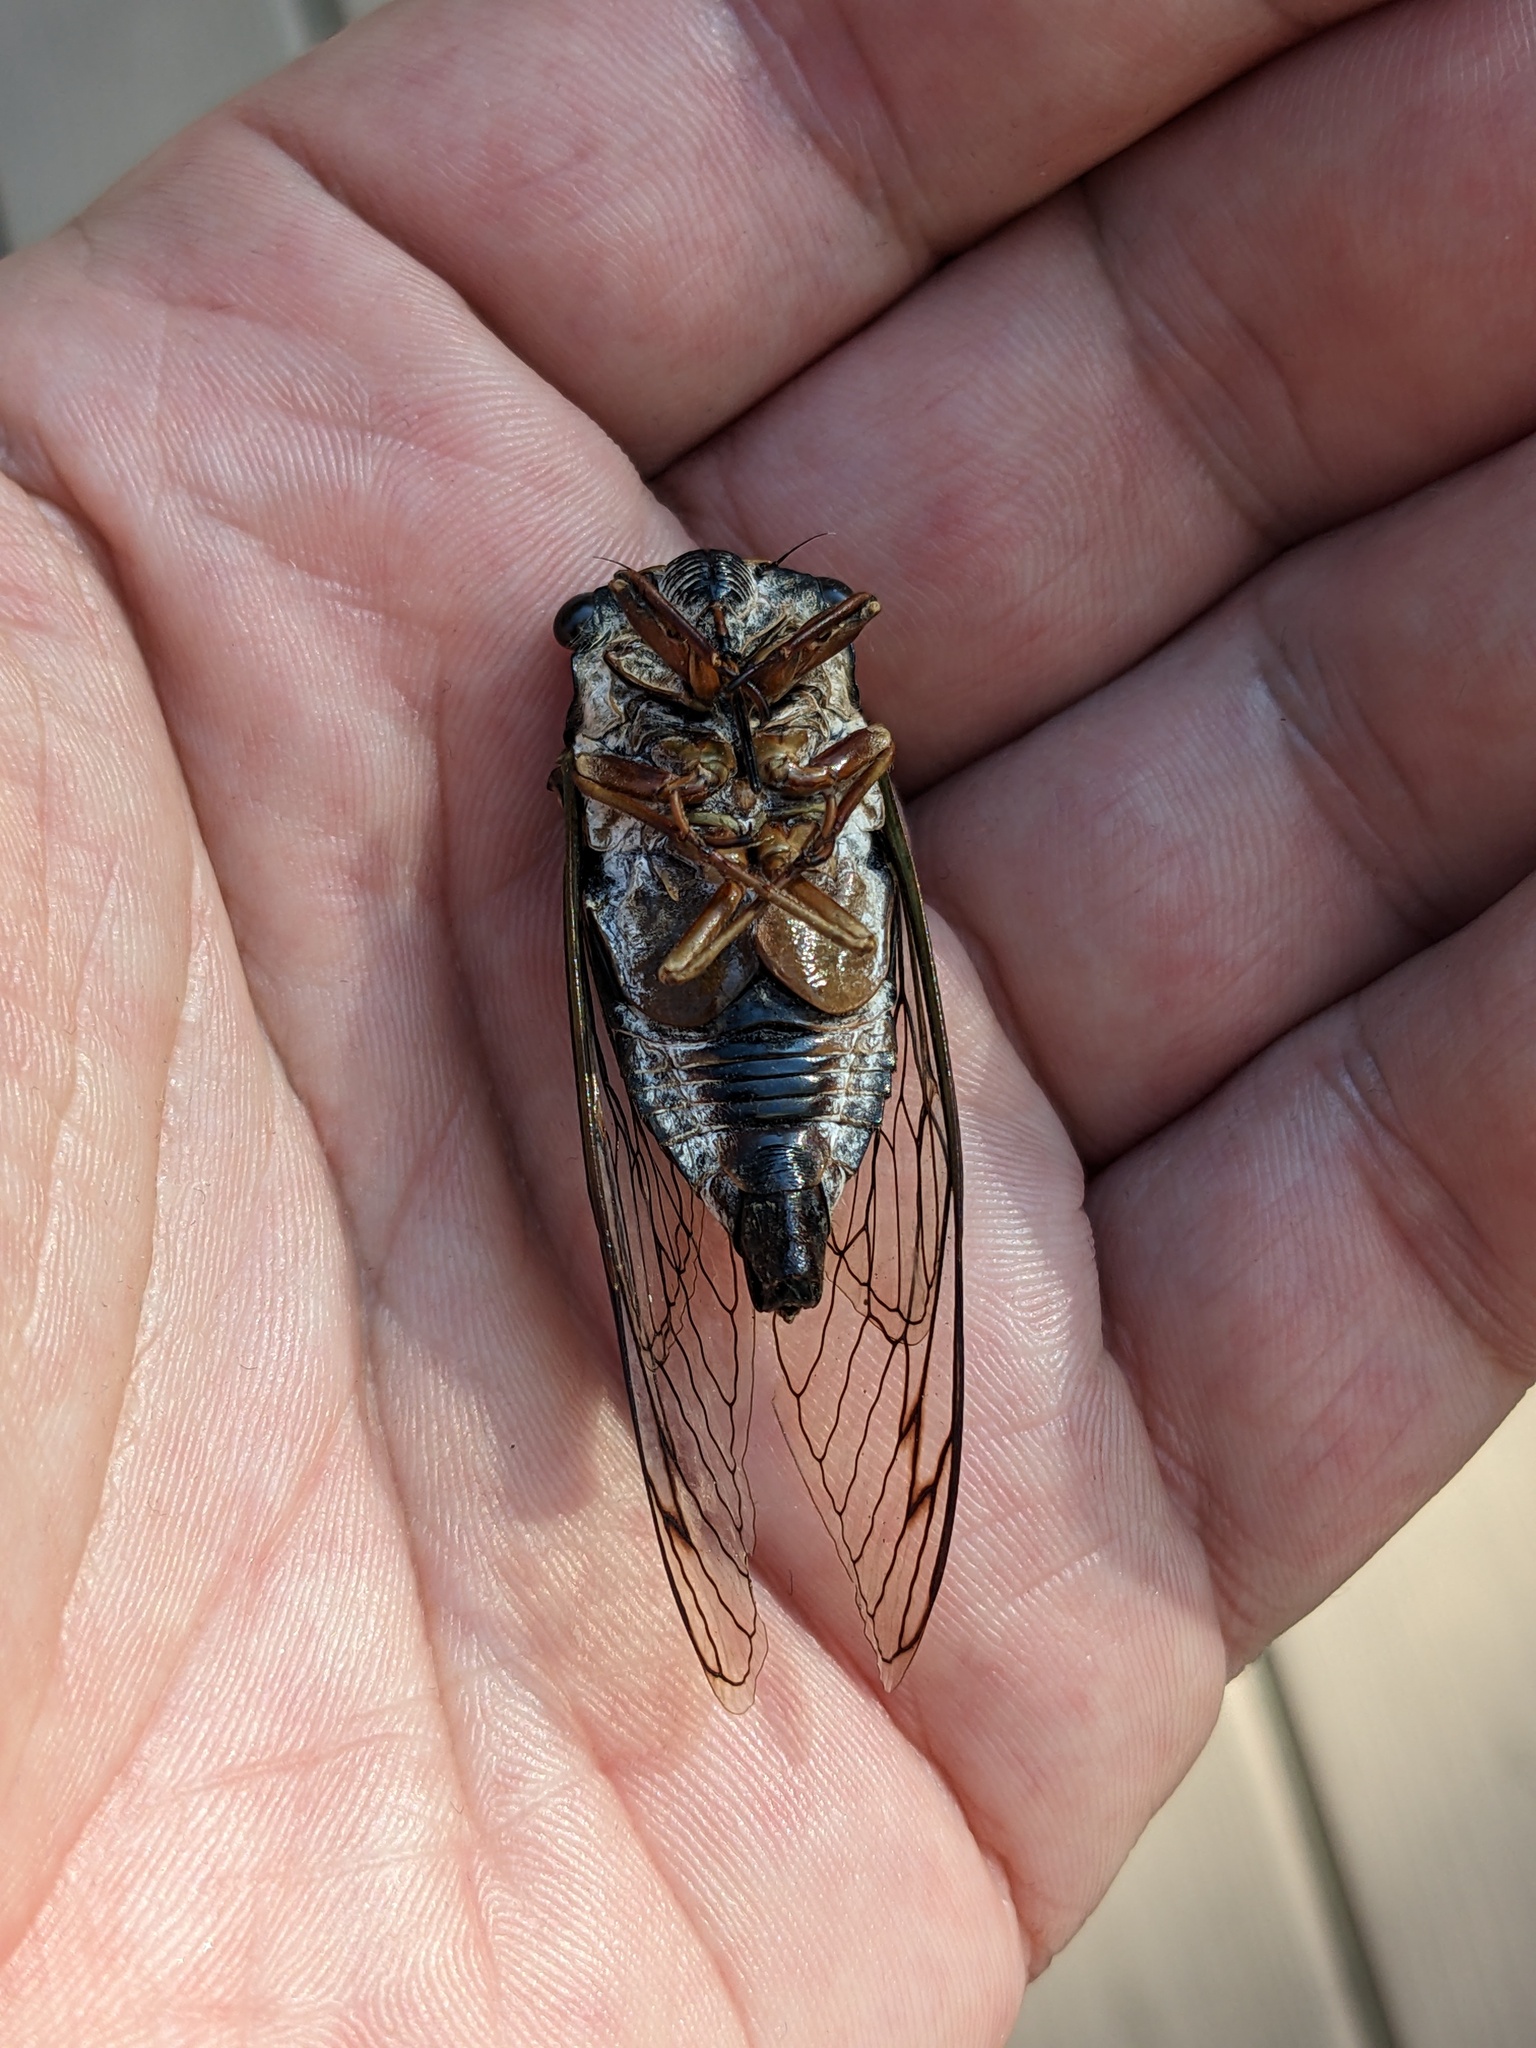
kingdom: Animalia
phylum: Arthropoda
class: Insecta
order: Hemiptera
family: Cicadidae
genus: Neotibicen
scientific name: Neotibicen lyricen
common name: Lyric cicada
